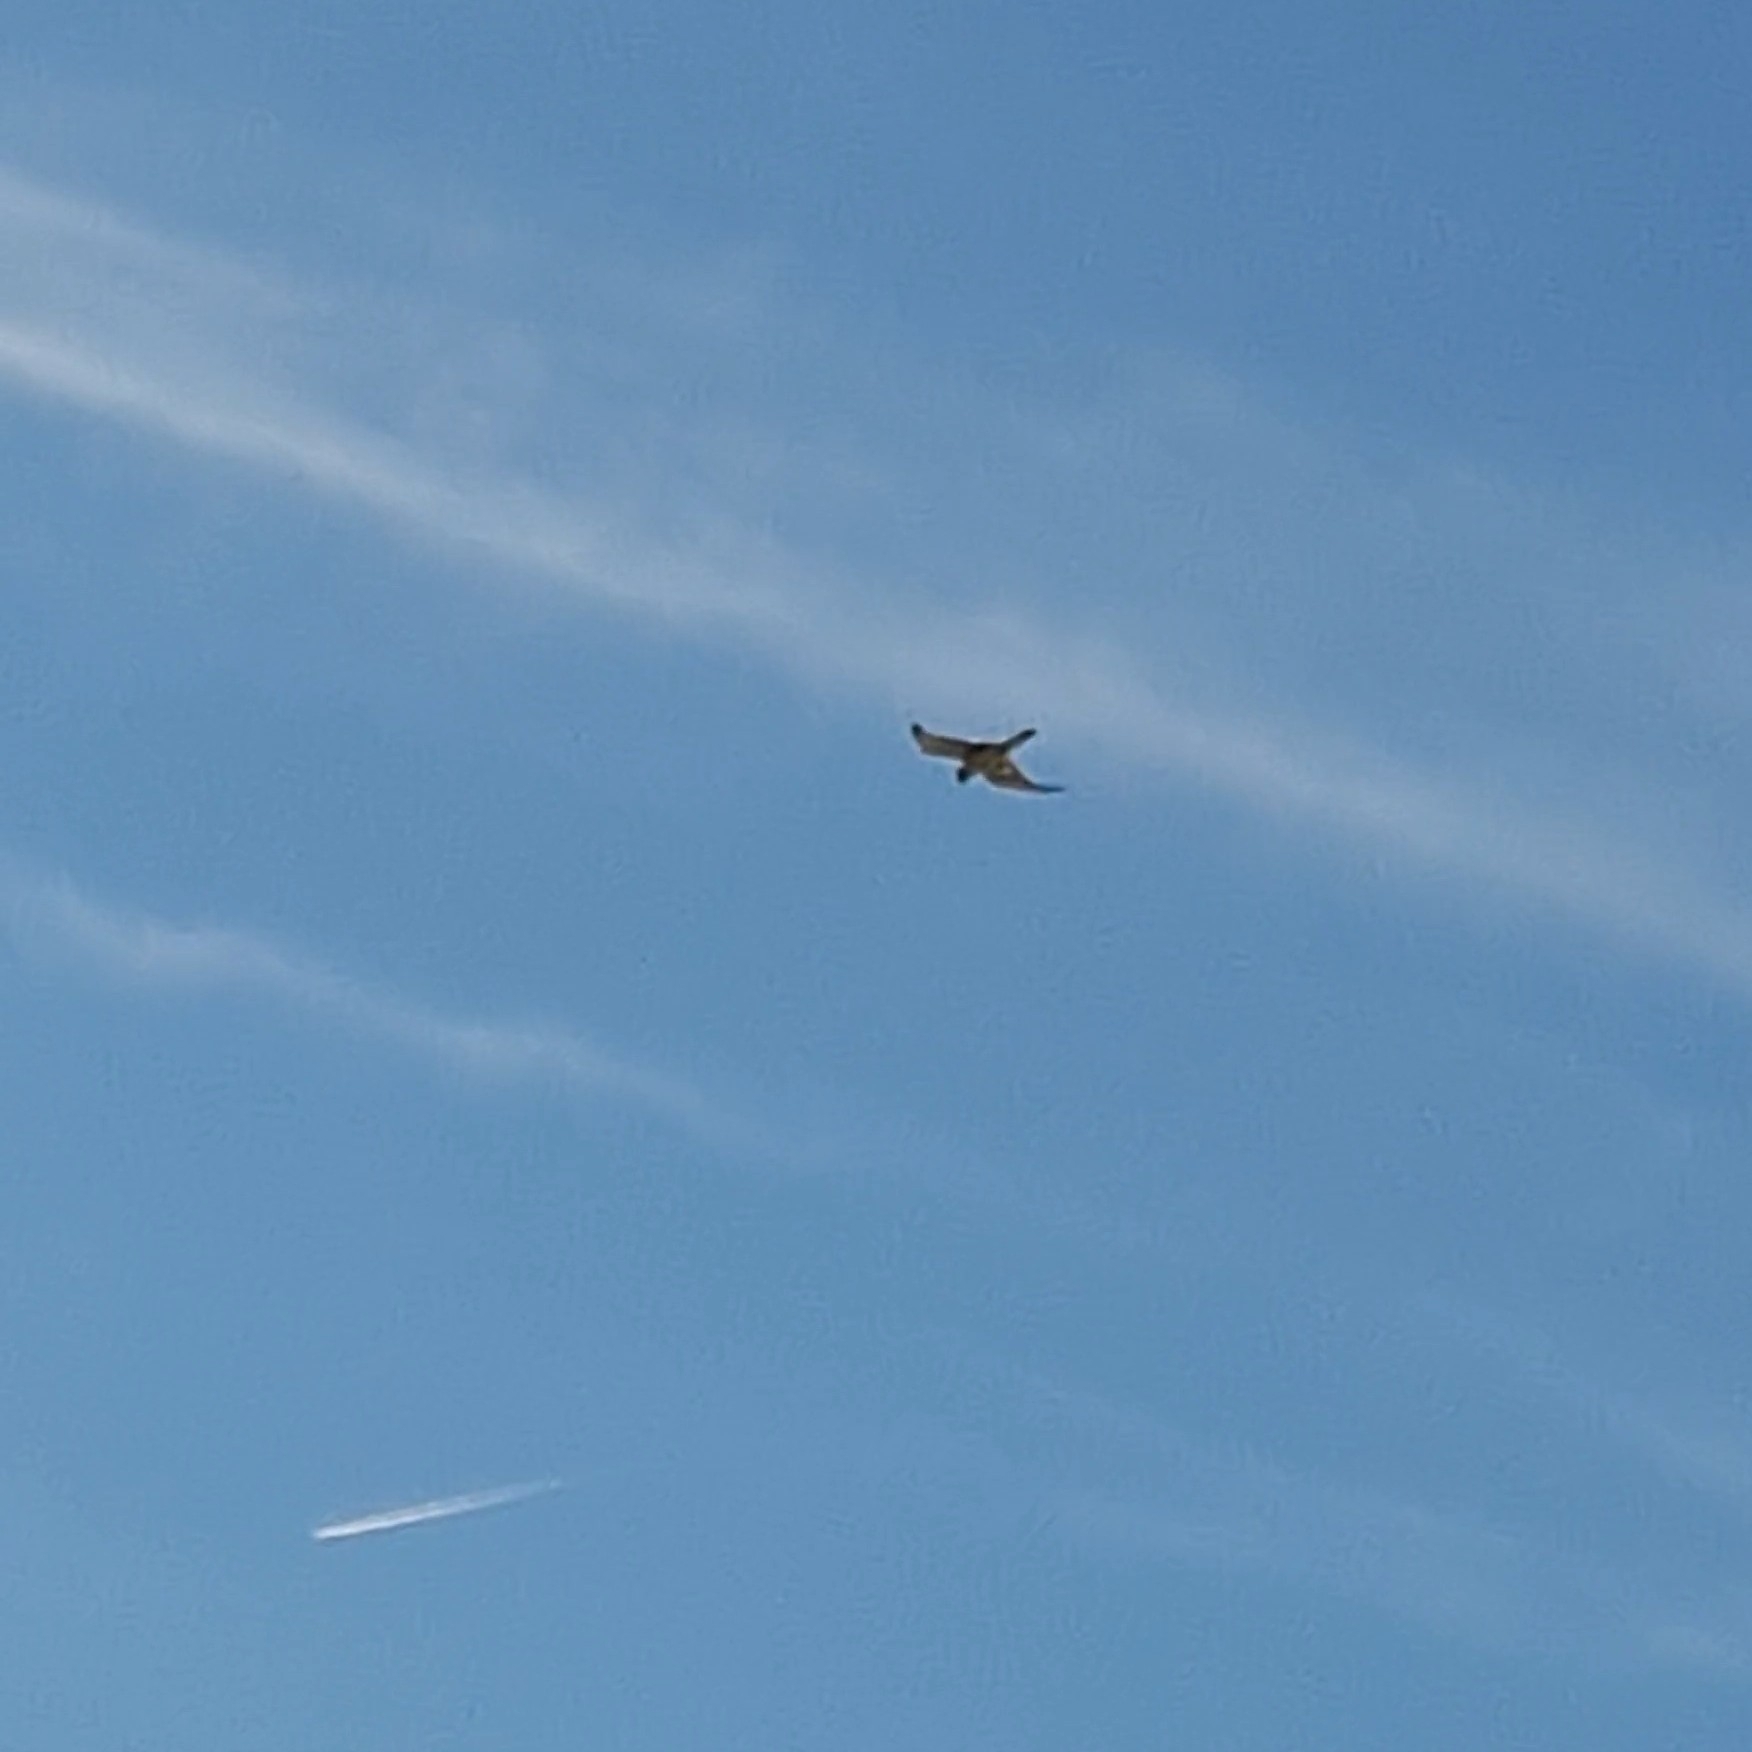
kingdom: Animalia
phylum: Chordata
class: Aves
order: Falconiformes
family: Falconidae
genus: Falco
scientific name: Falco tinnunculus
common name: Common kestrel
